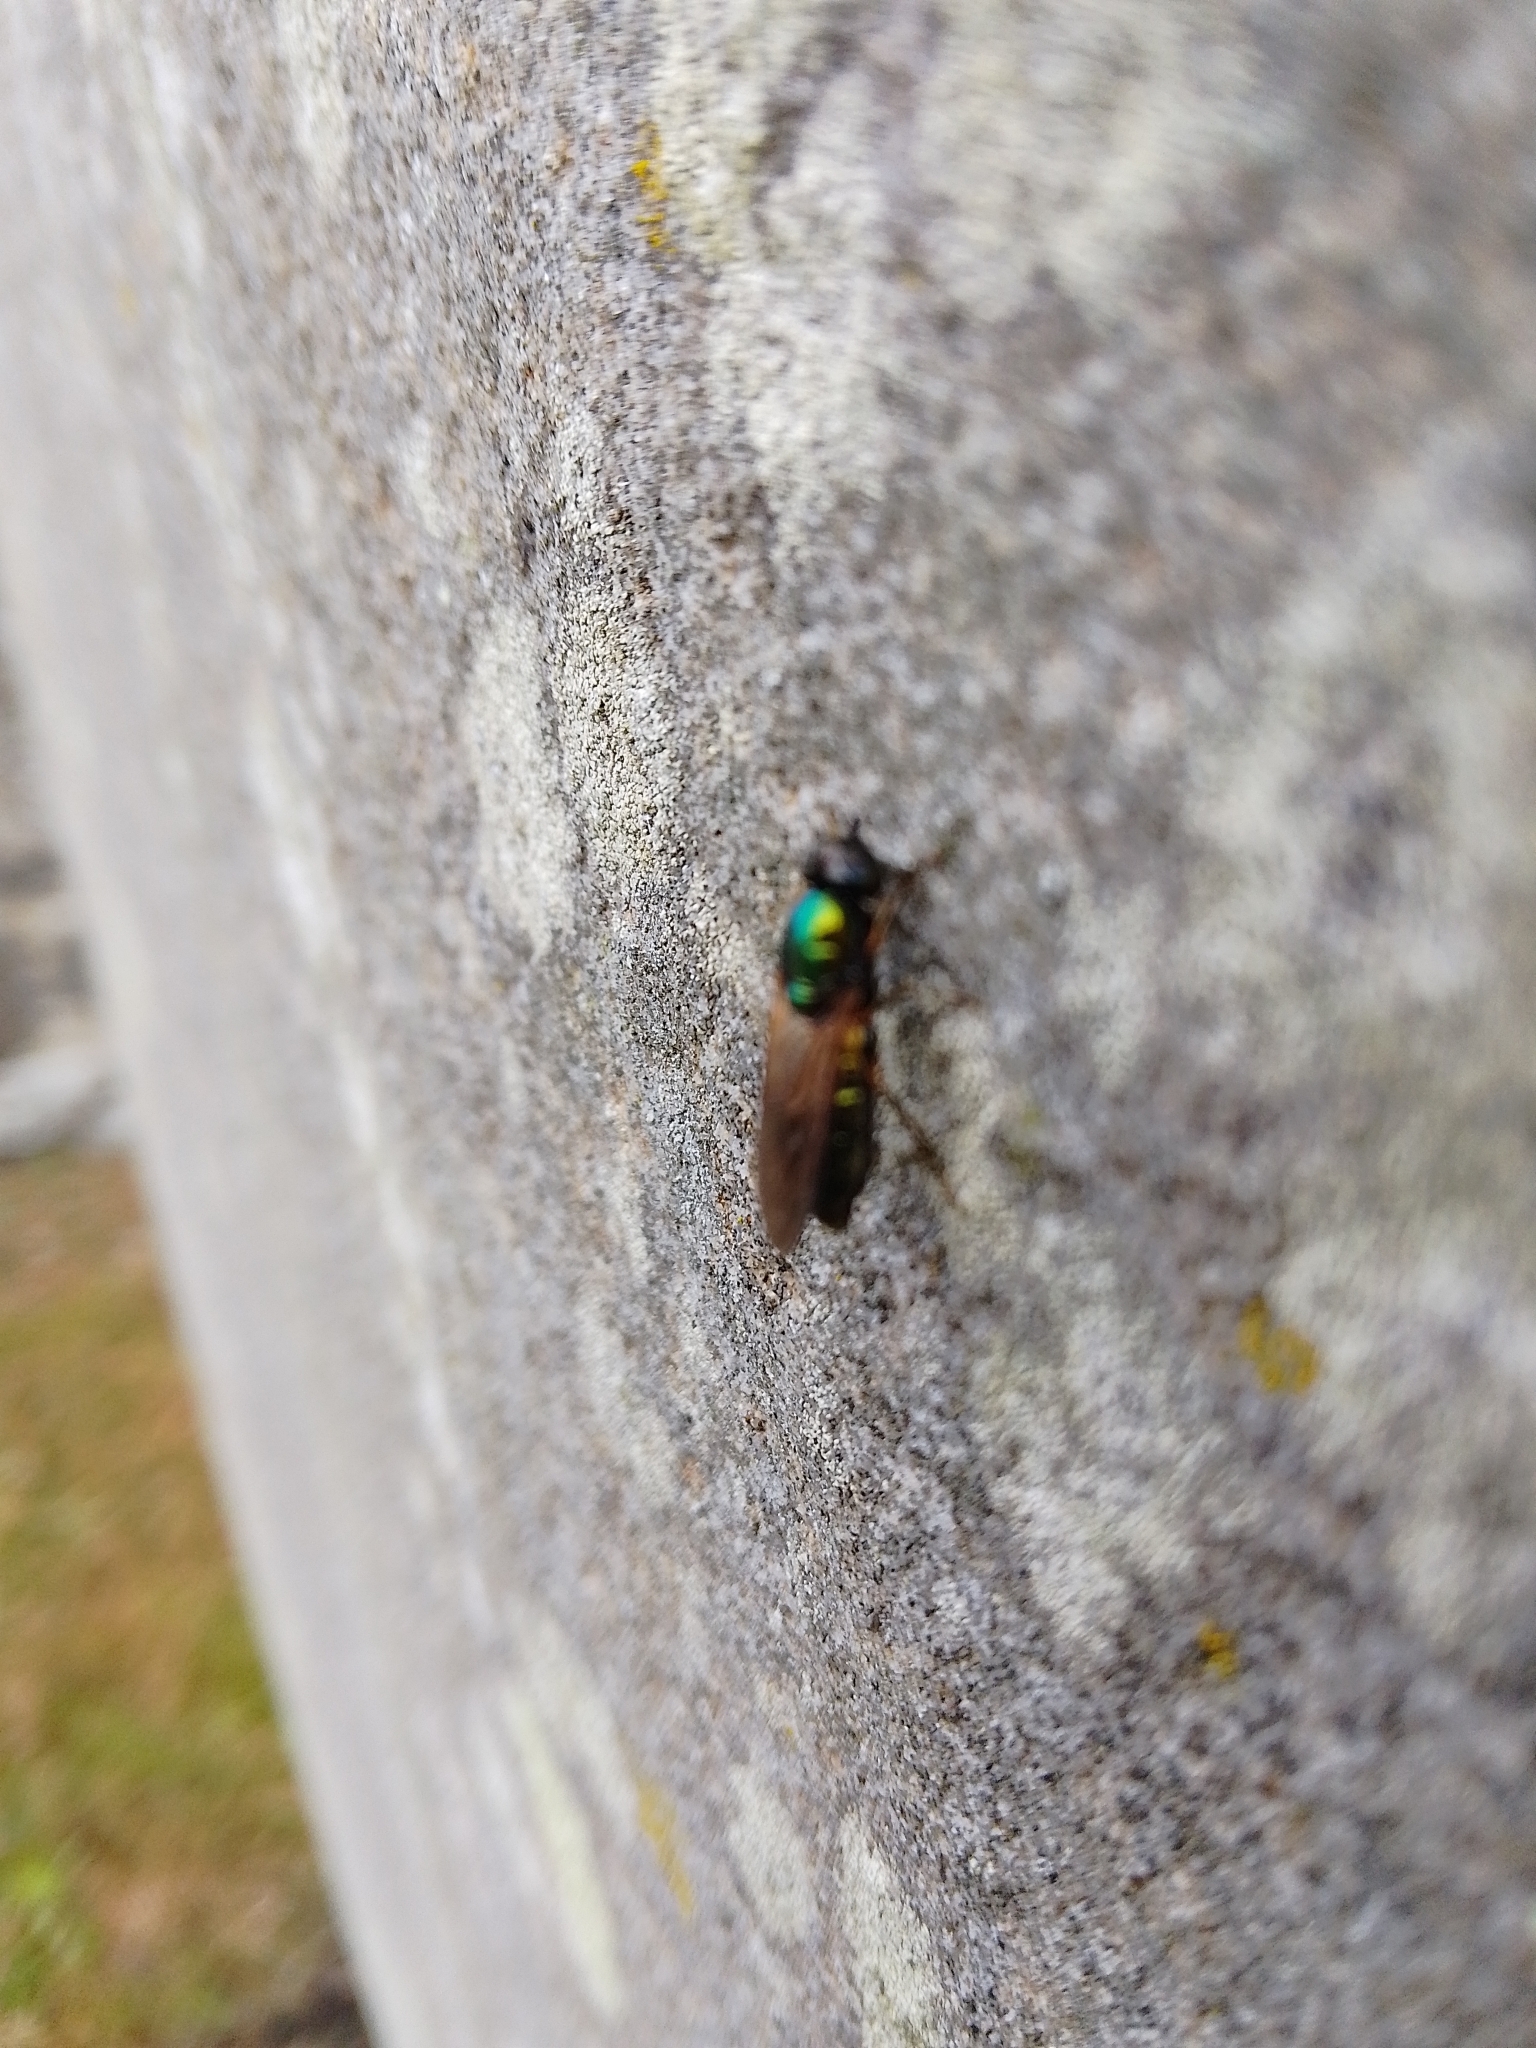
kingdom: Animalia
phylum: Arthropoda
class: Insecta
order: Diptera
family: Stratiomyidae
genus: Chloromyia
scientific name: Chloromyia formosa
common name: Soldier fly
